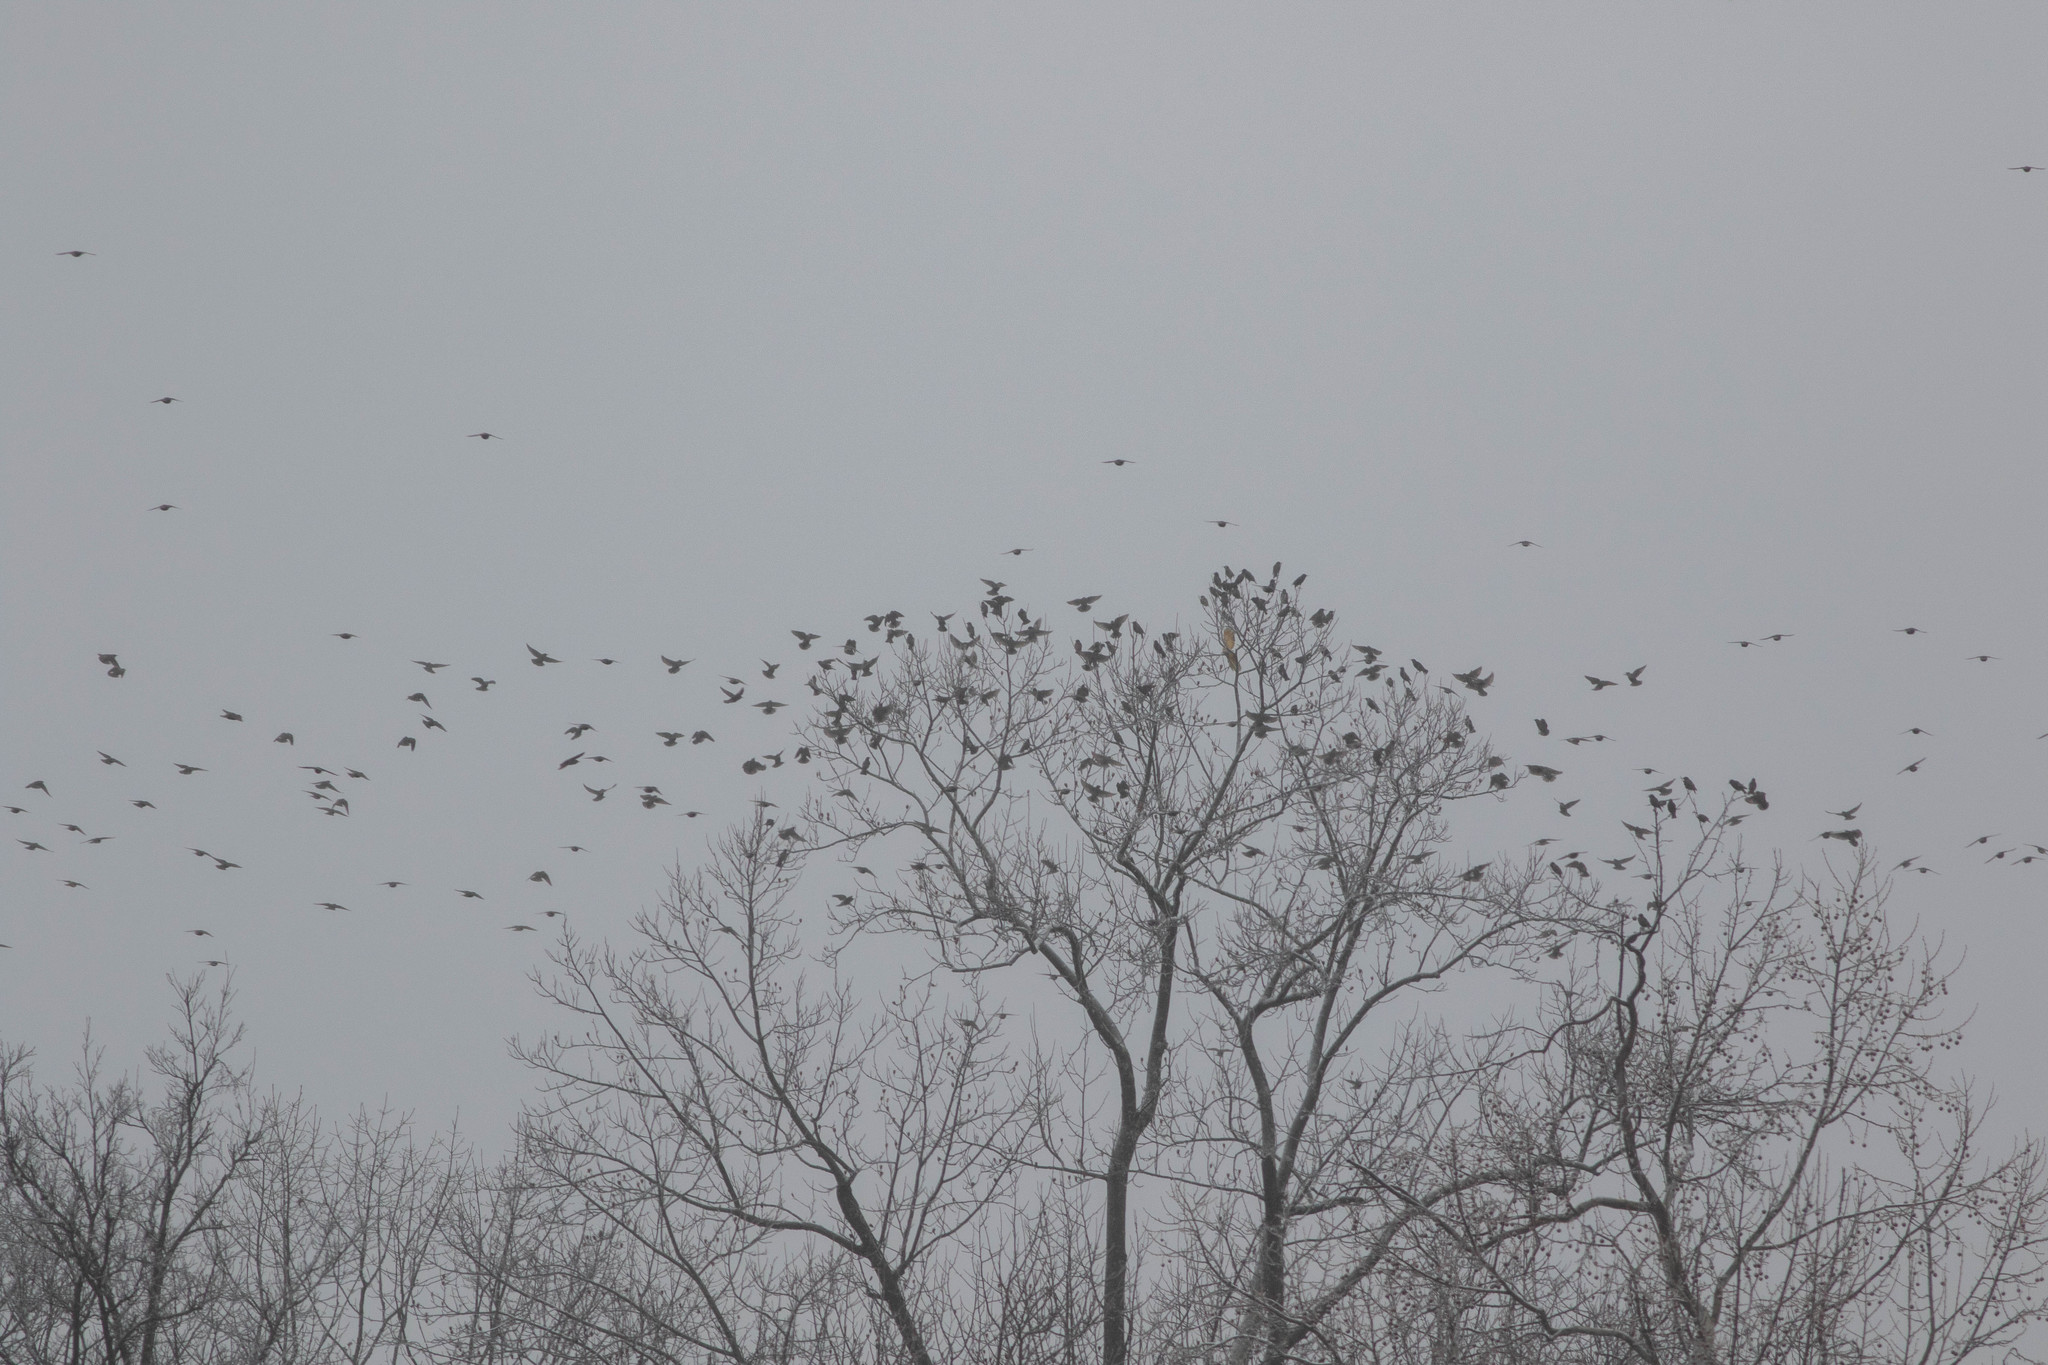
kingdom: Animalia
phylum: Chordata
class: Aves
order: Passeriformes
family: Sturnidae
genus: Sturnus
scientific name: Sturnus vulgaris
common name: Common starling
